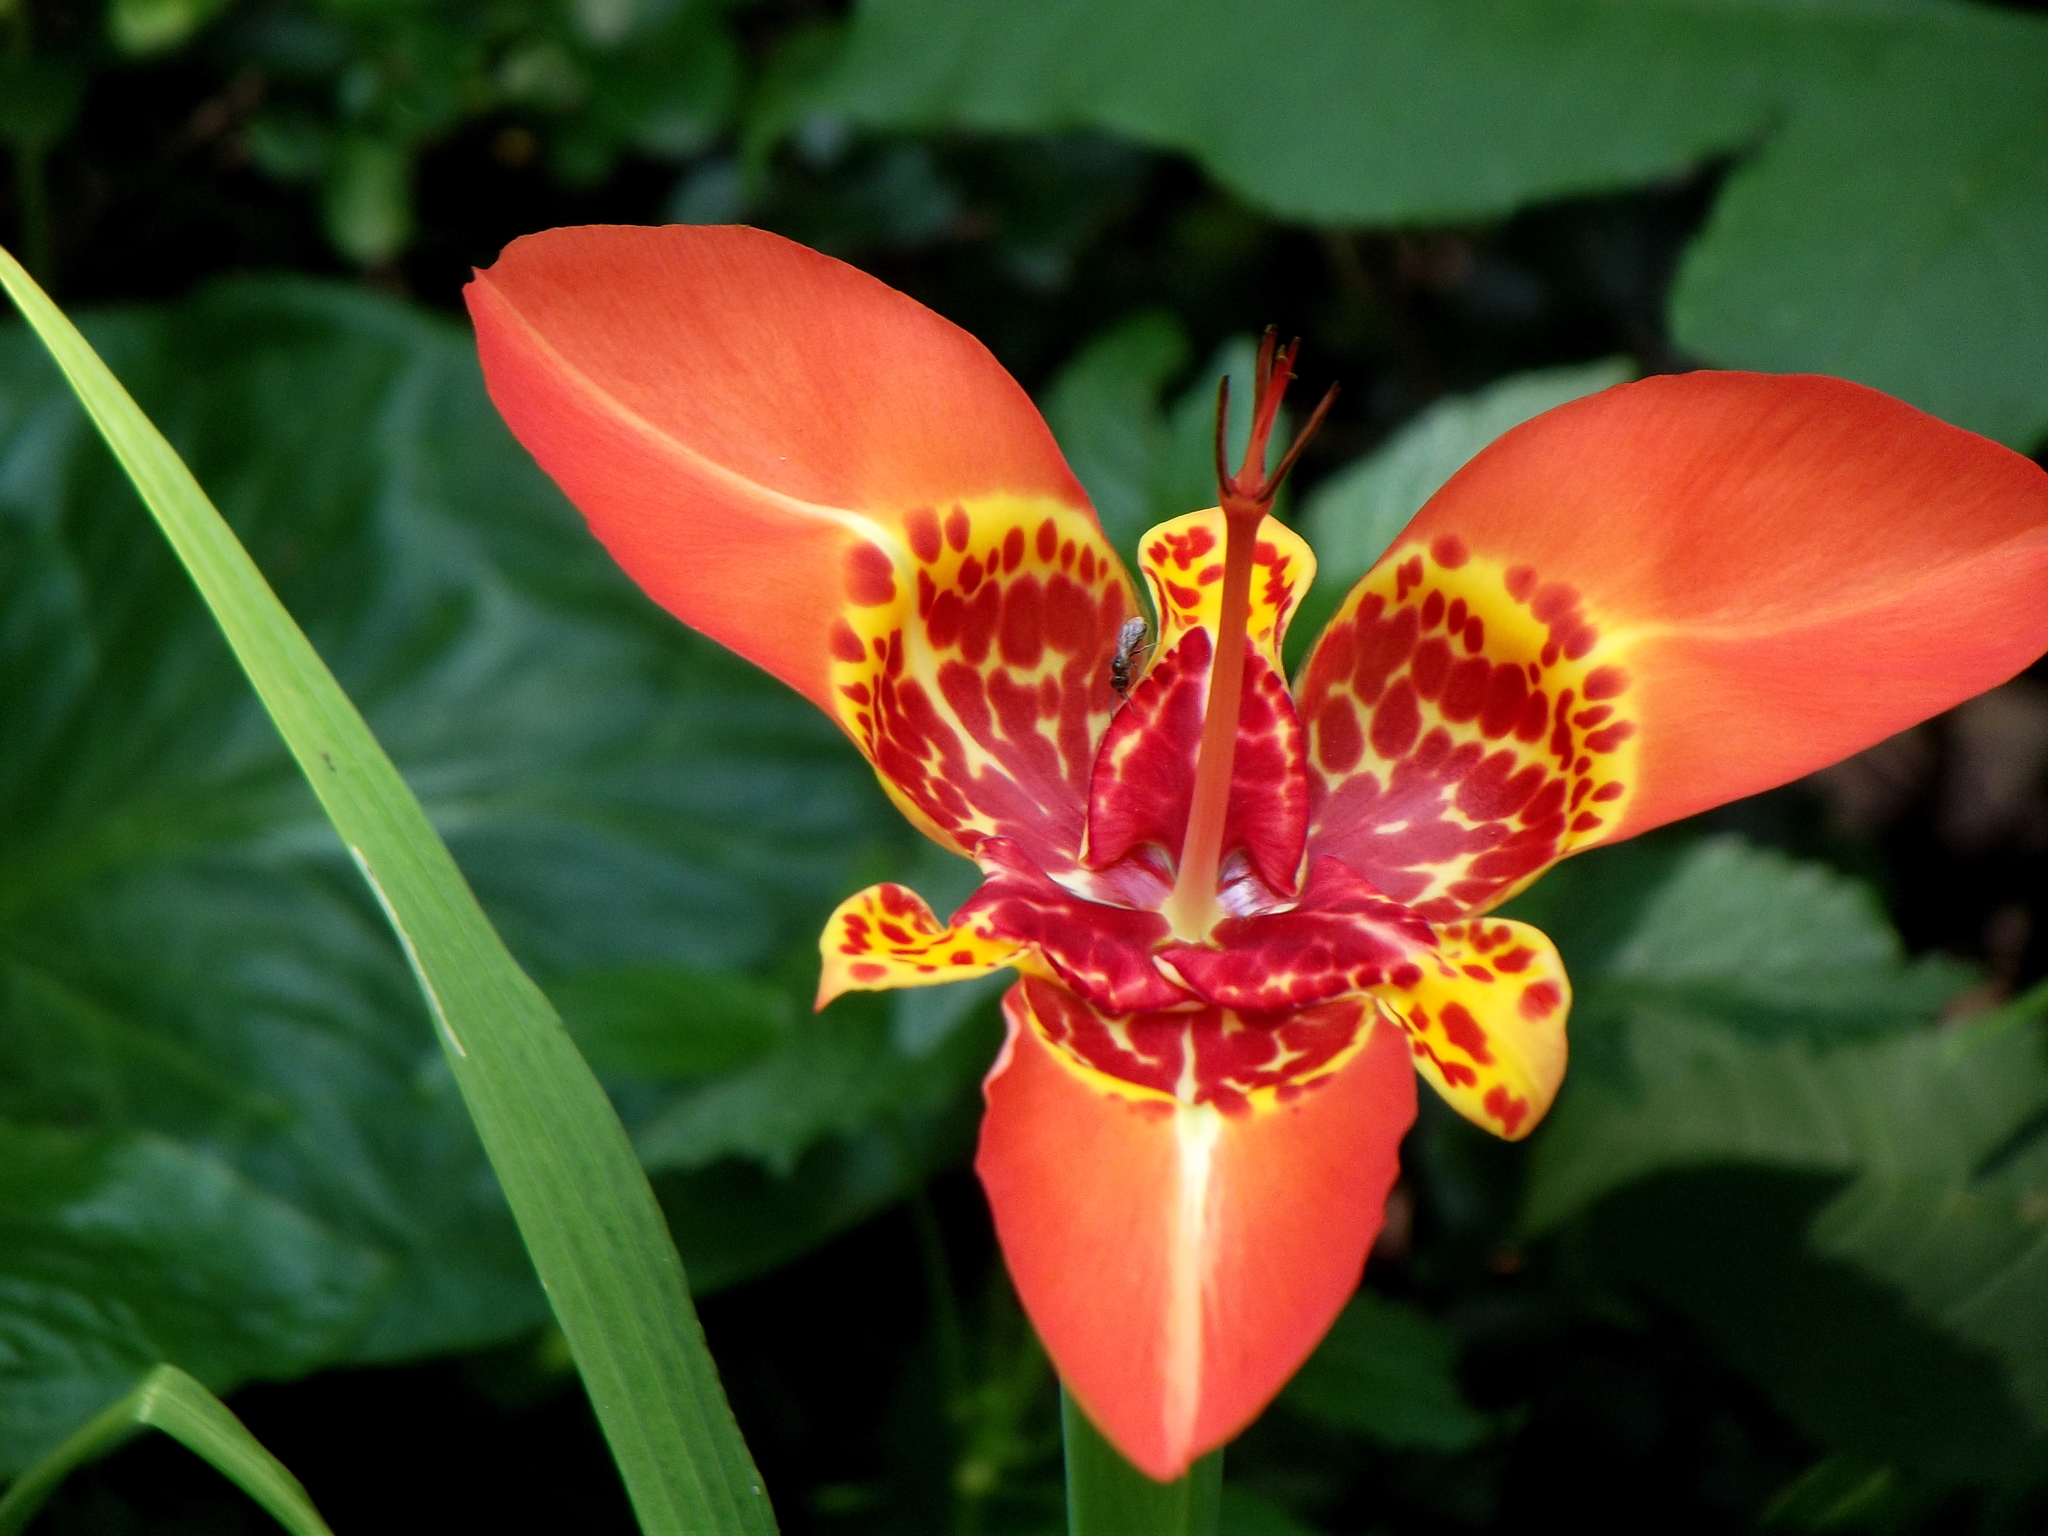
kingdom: Plantae
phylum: Tracheophyta
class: Liliopsida
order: Asparagales
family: Iridaceae
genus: Tigridia
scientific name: Tigridia pavonia
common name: Peacock-flower
